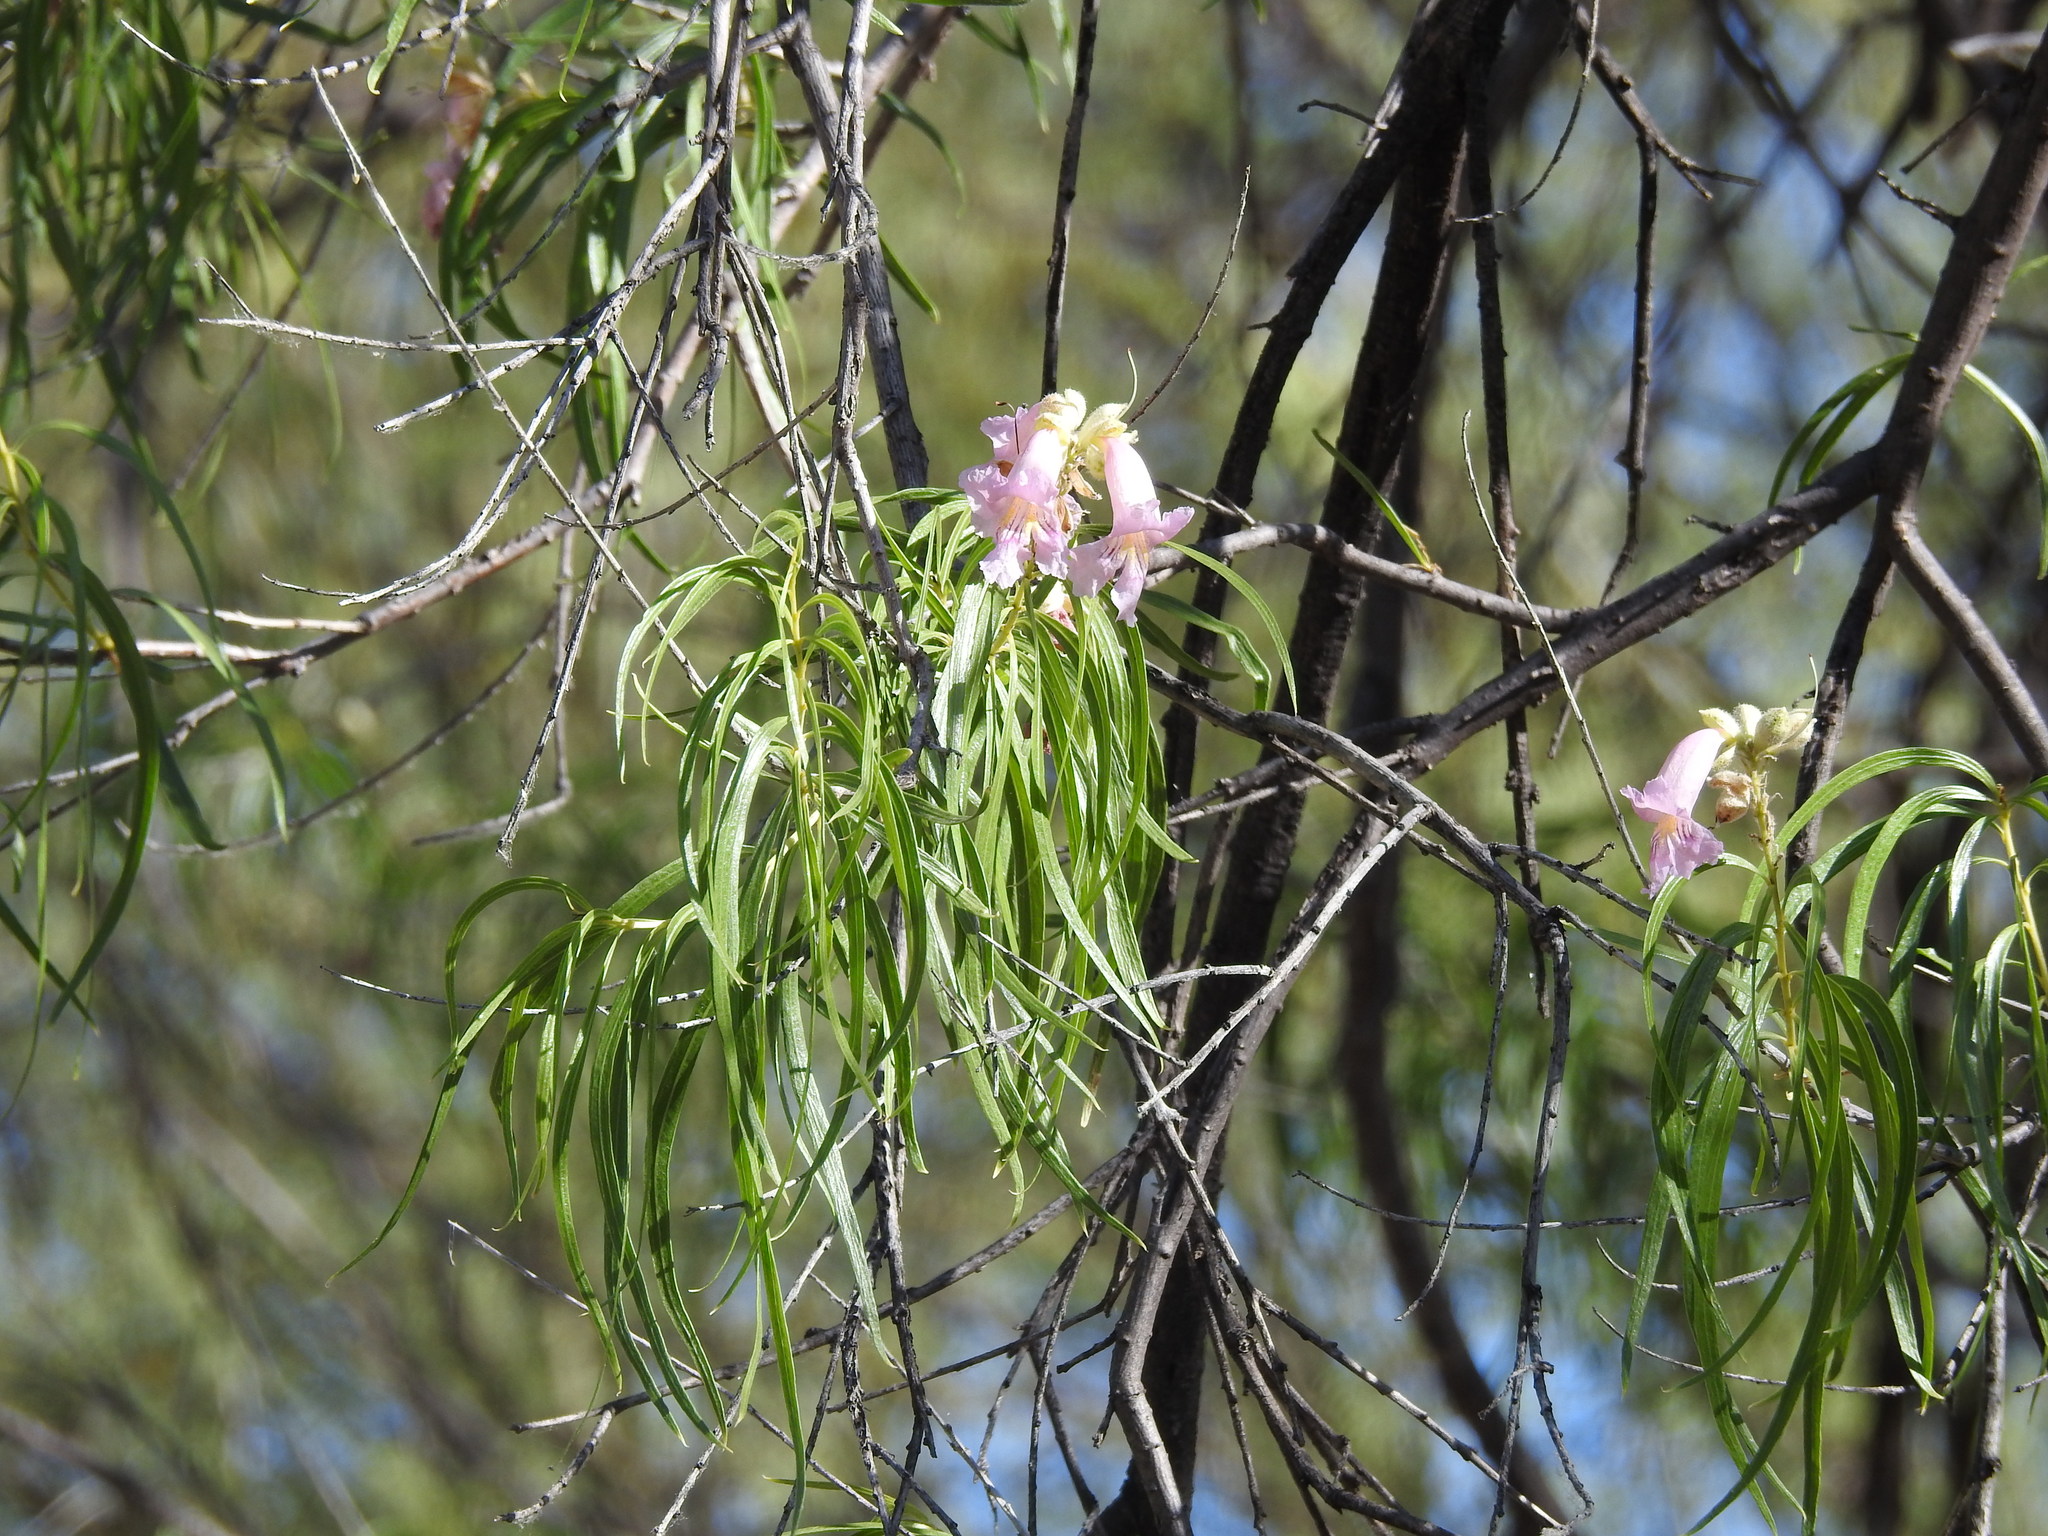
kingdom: Plantae
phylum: Tracheophyta
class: Magnoliopsida
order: Lamiales
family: Bignoniaceae
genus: Chilopsis
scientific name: Chilopsis linearis
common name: Desert-willow
